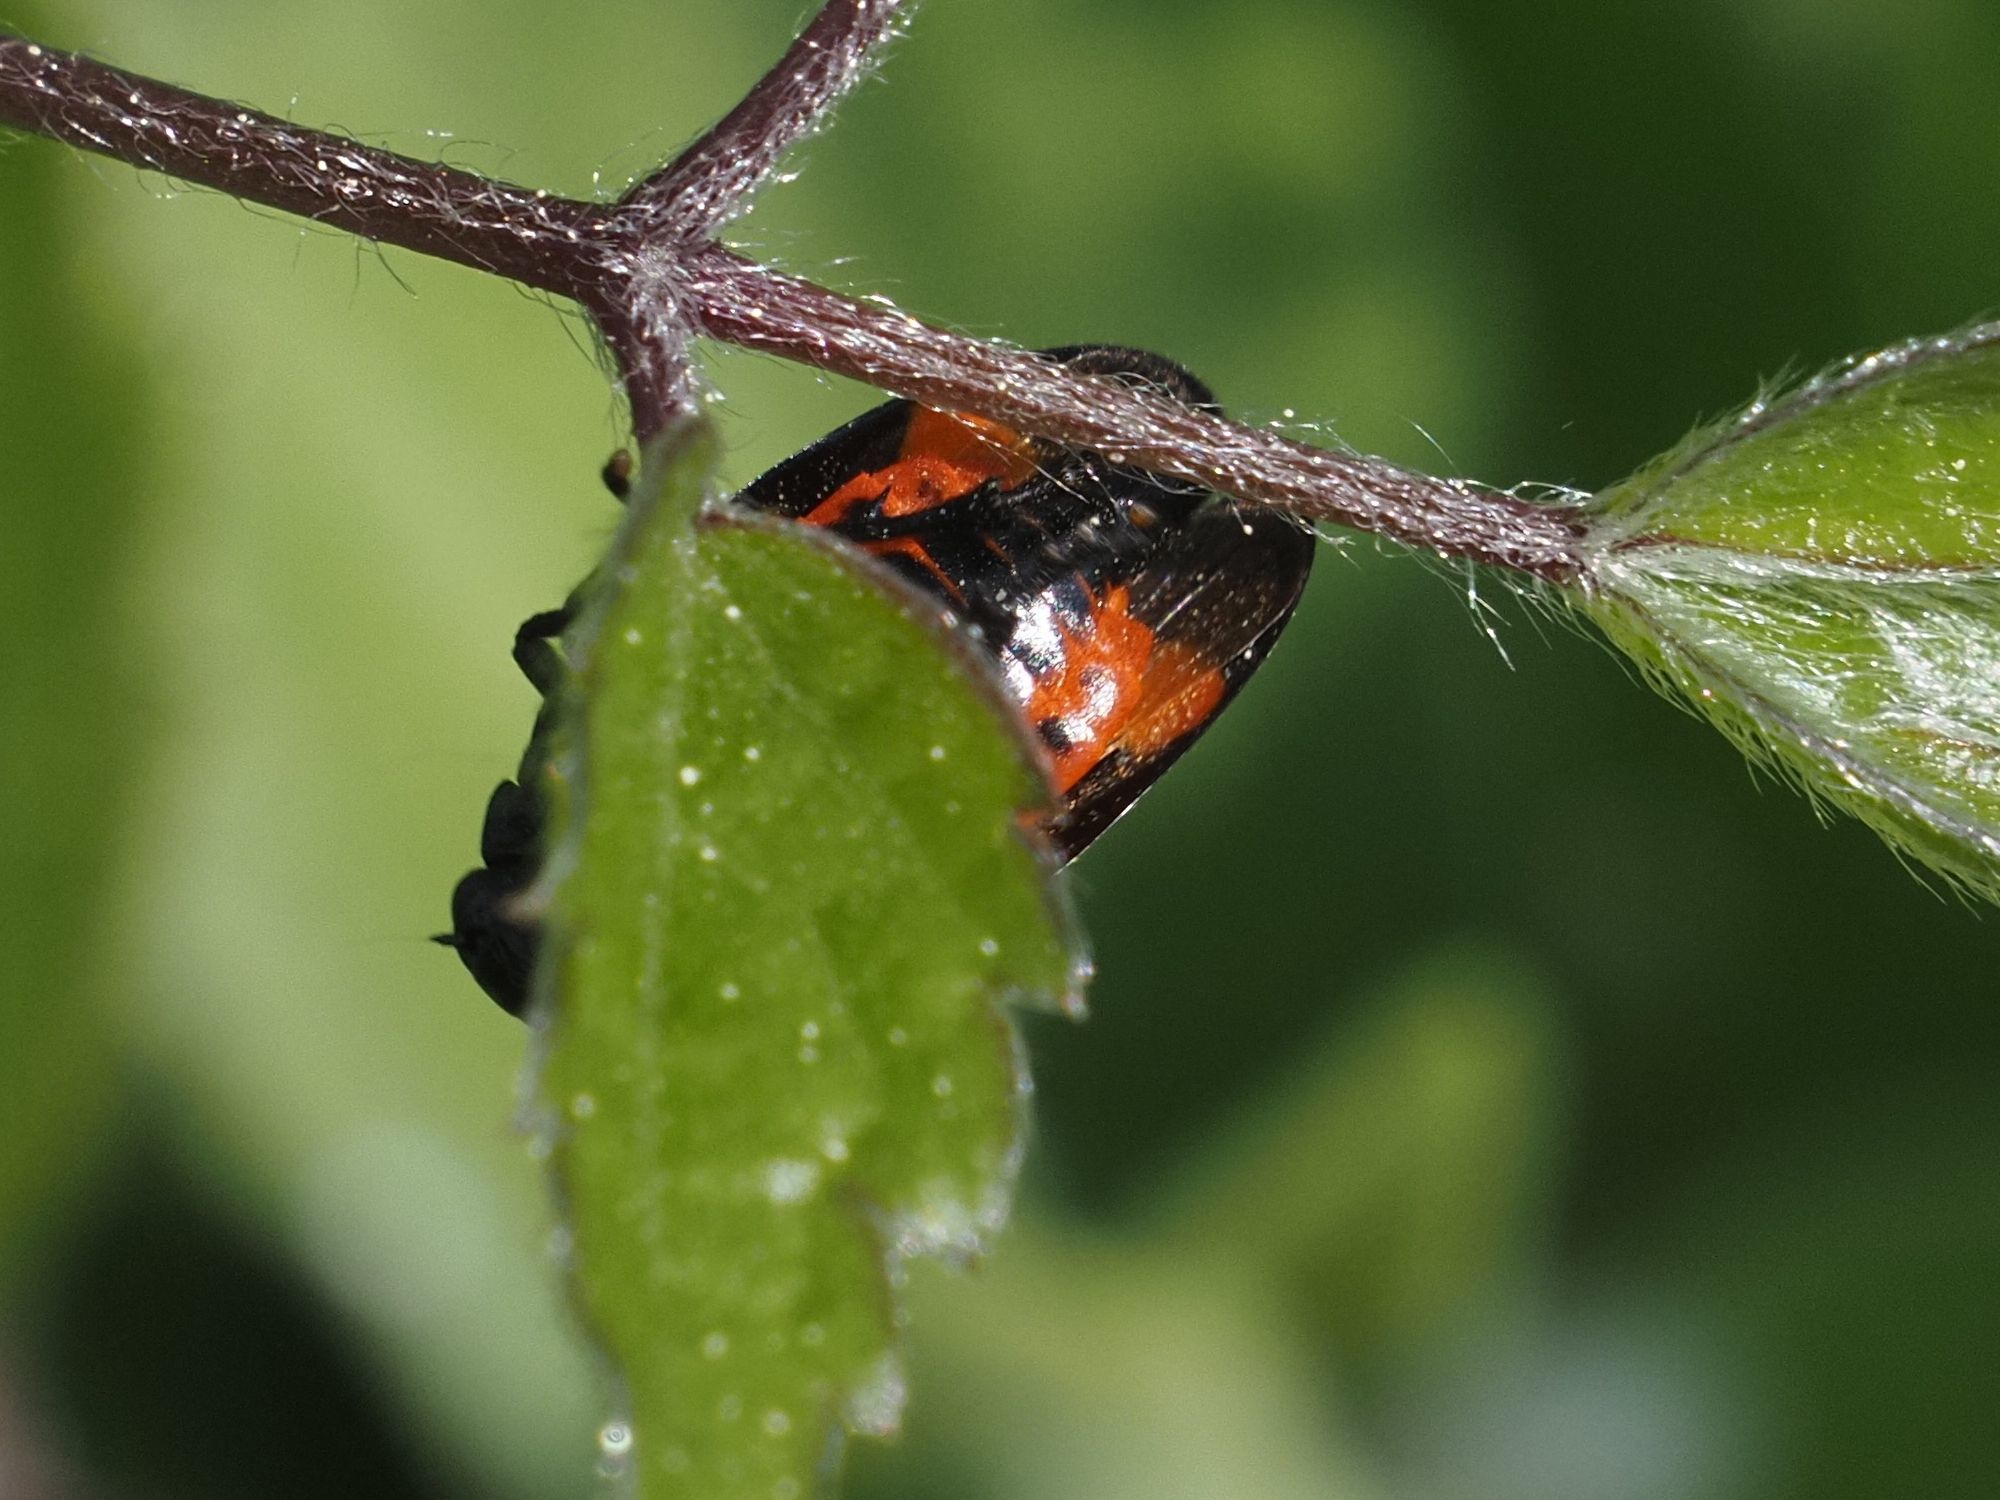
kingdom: Animalia
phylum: Arthropoda
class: Insecta
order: Hemiptera
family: Cercopidae
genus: Cercopis
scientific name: Cercopis sanguinolenta
